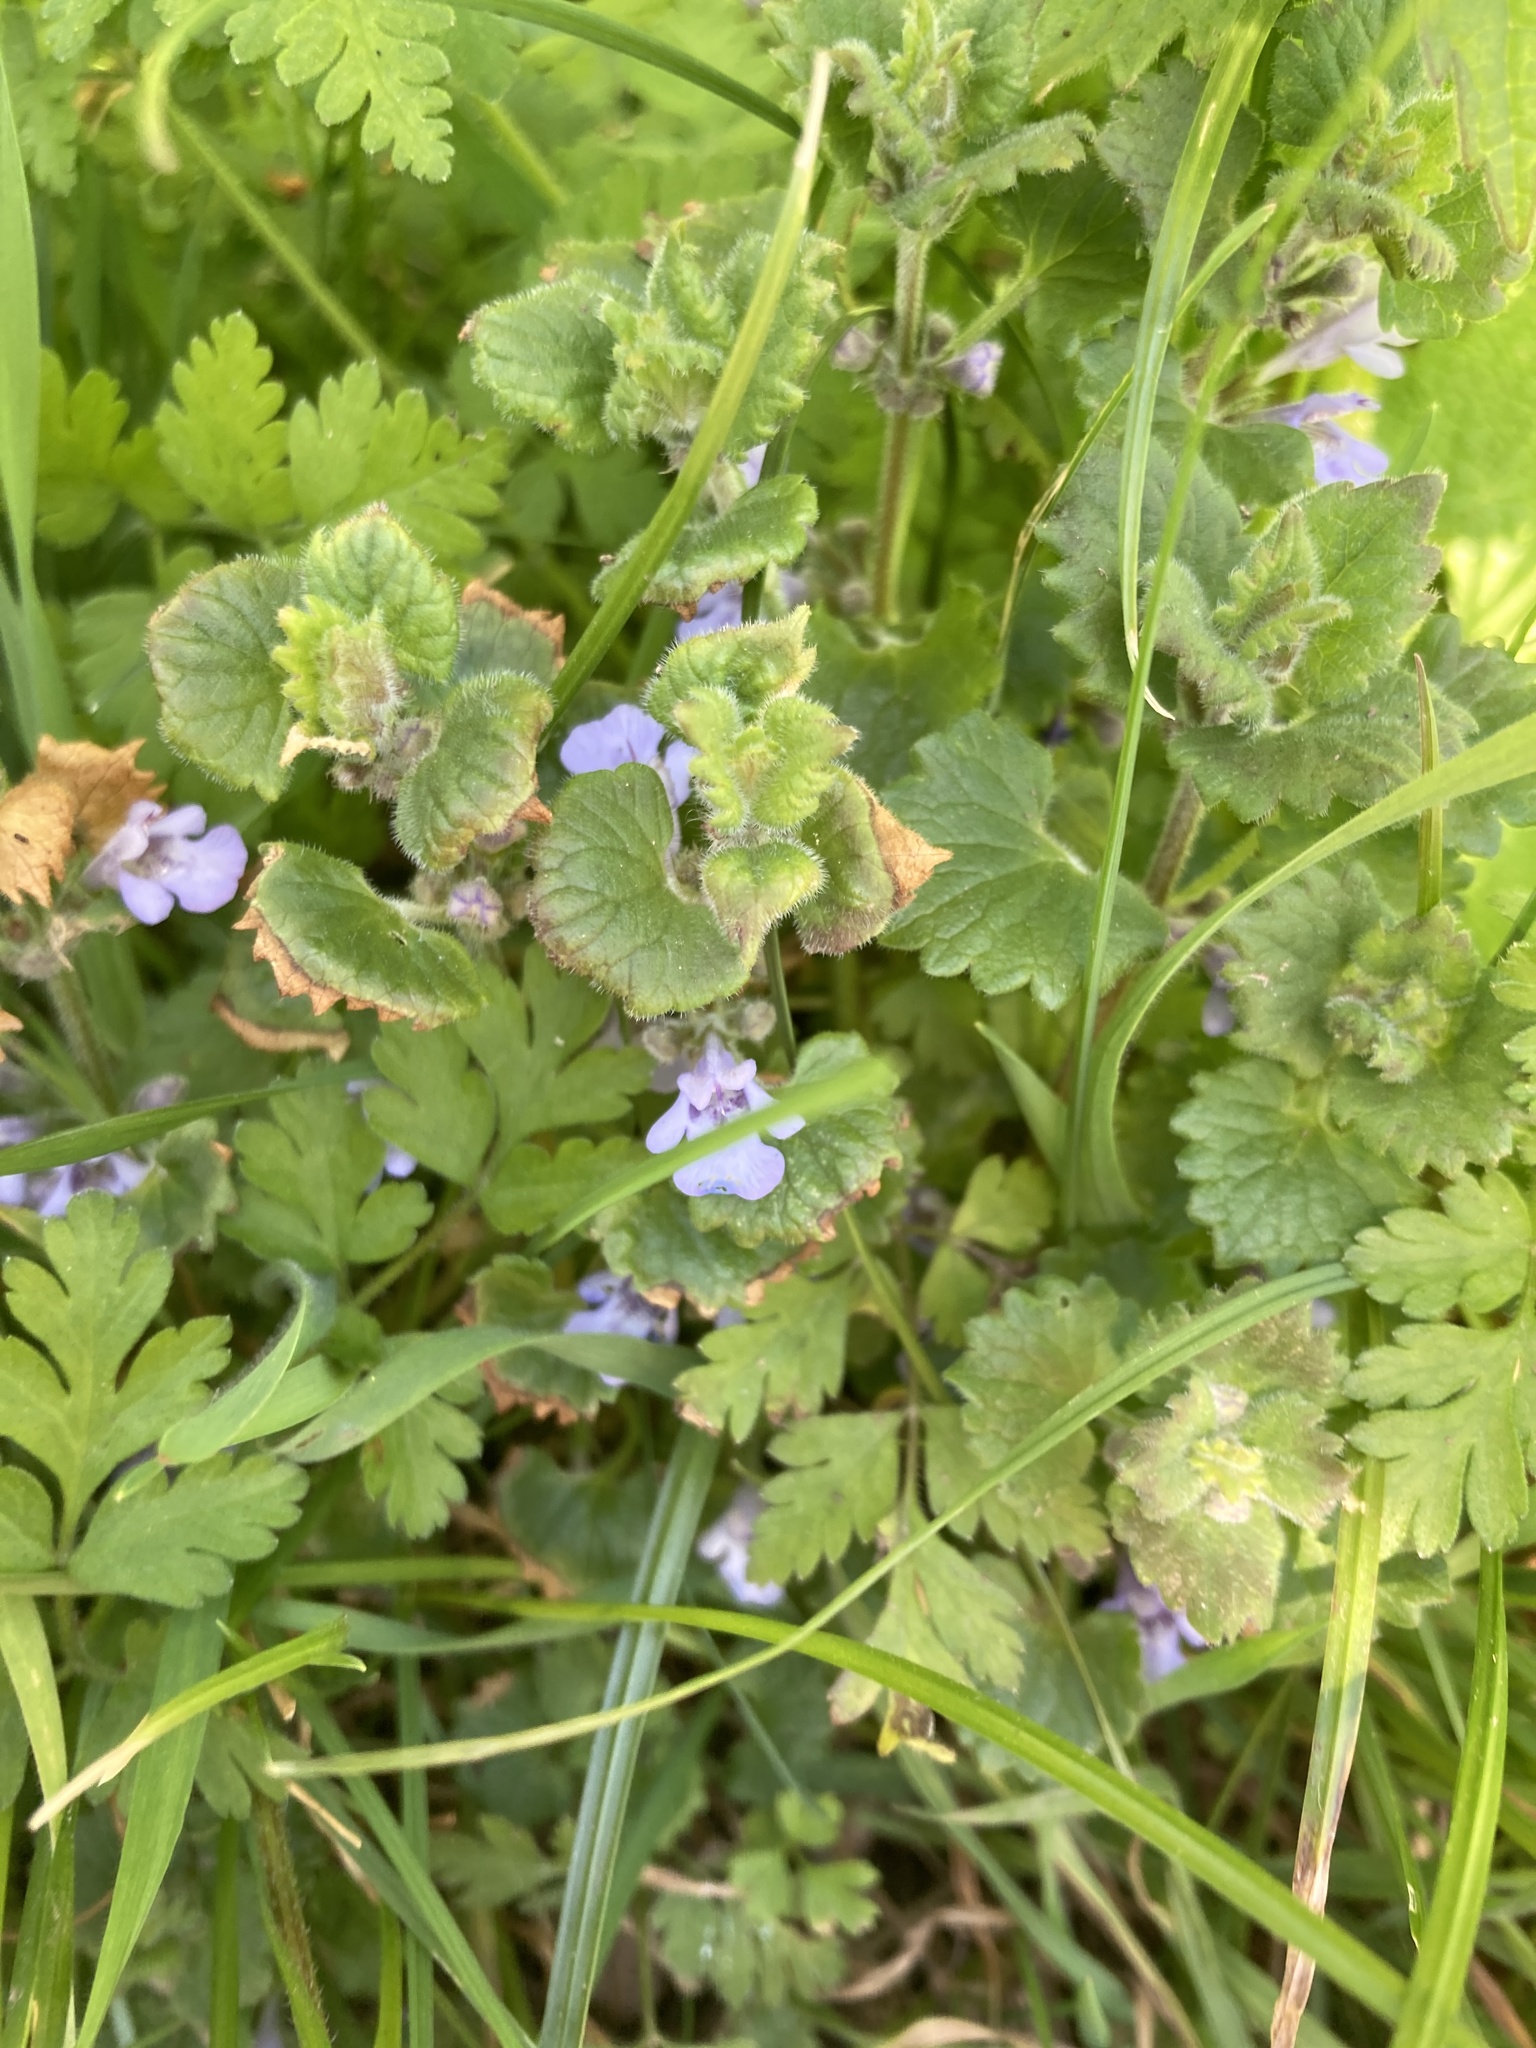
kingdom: Plantae
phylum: Tracheophyta
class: Magnoliopsida
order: Lamiales
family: Lamiaceae
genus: Glechoma
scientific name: Glechoma hederacea
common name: Ground ivy
